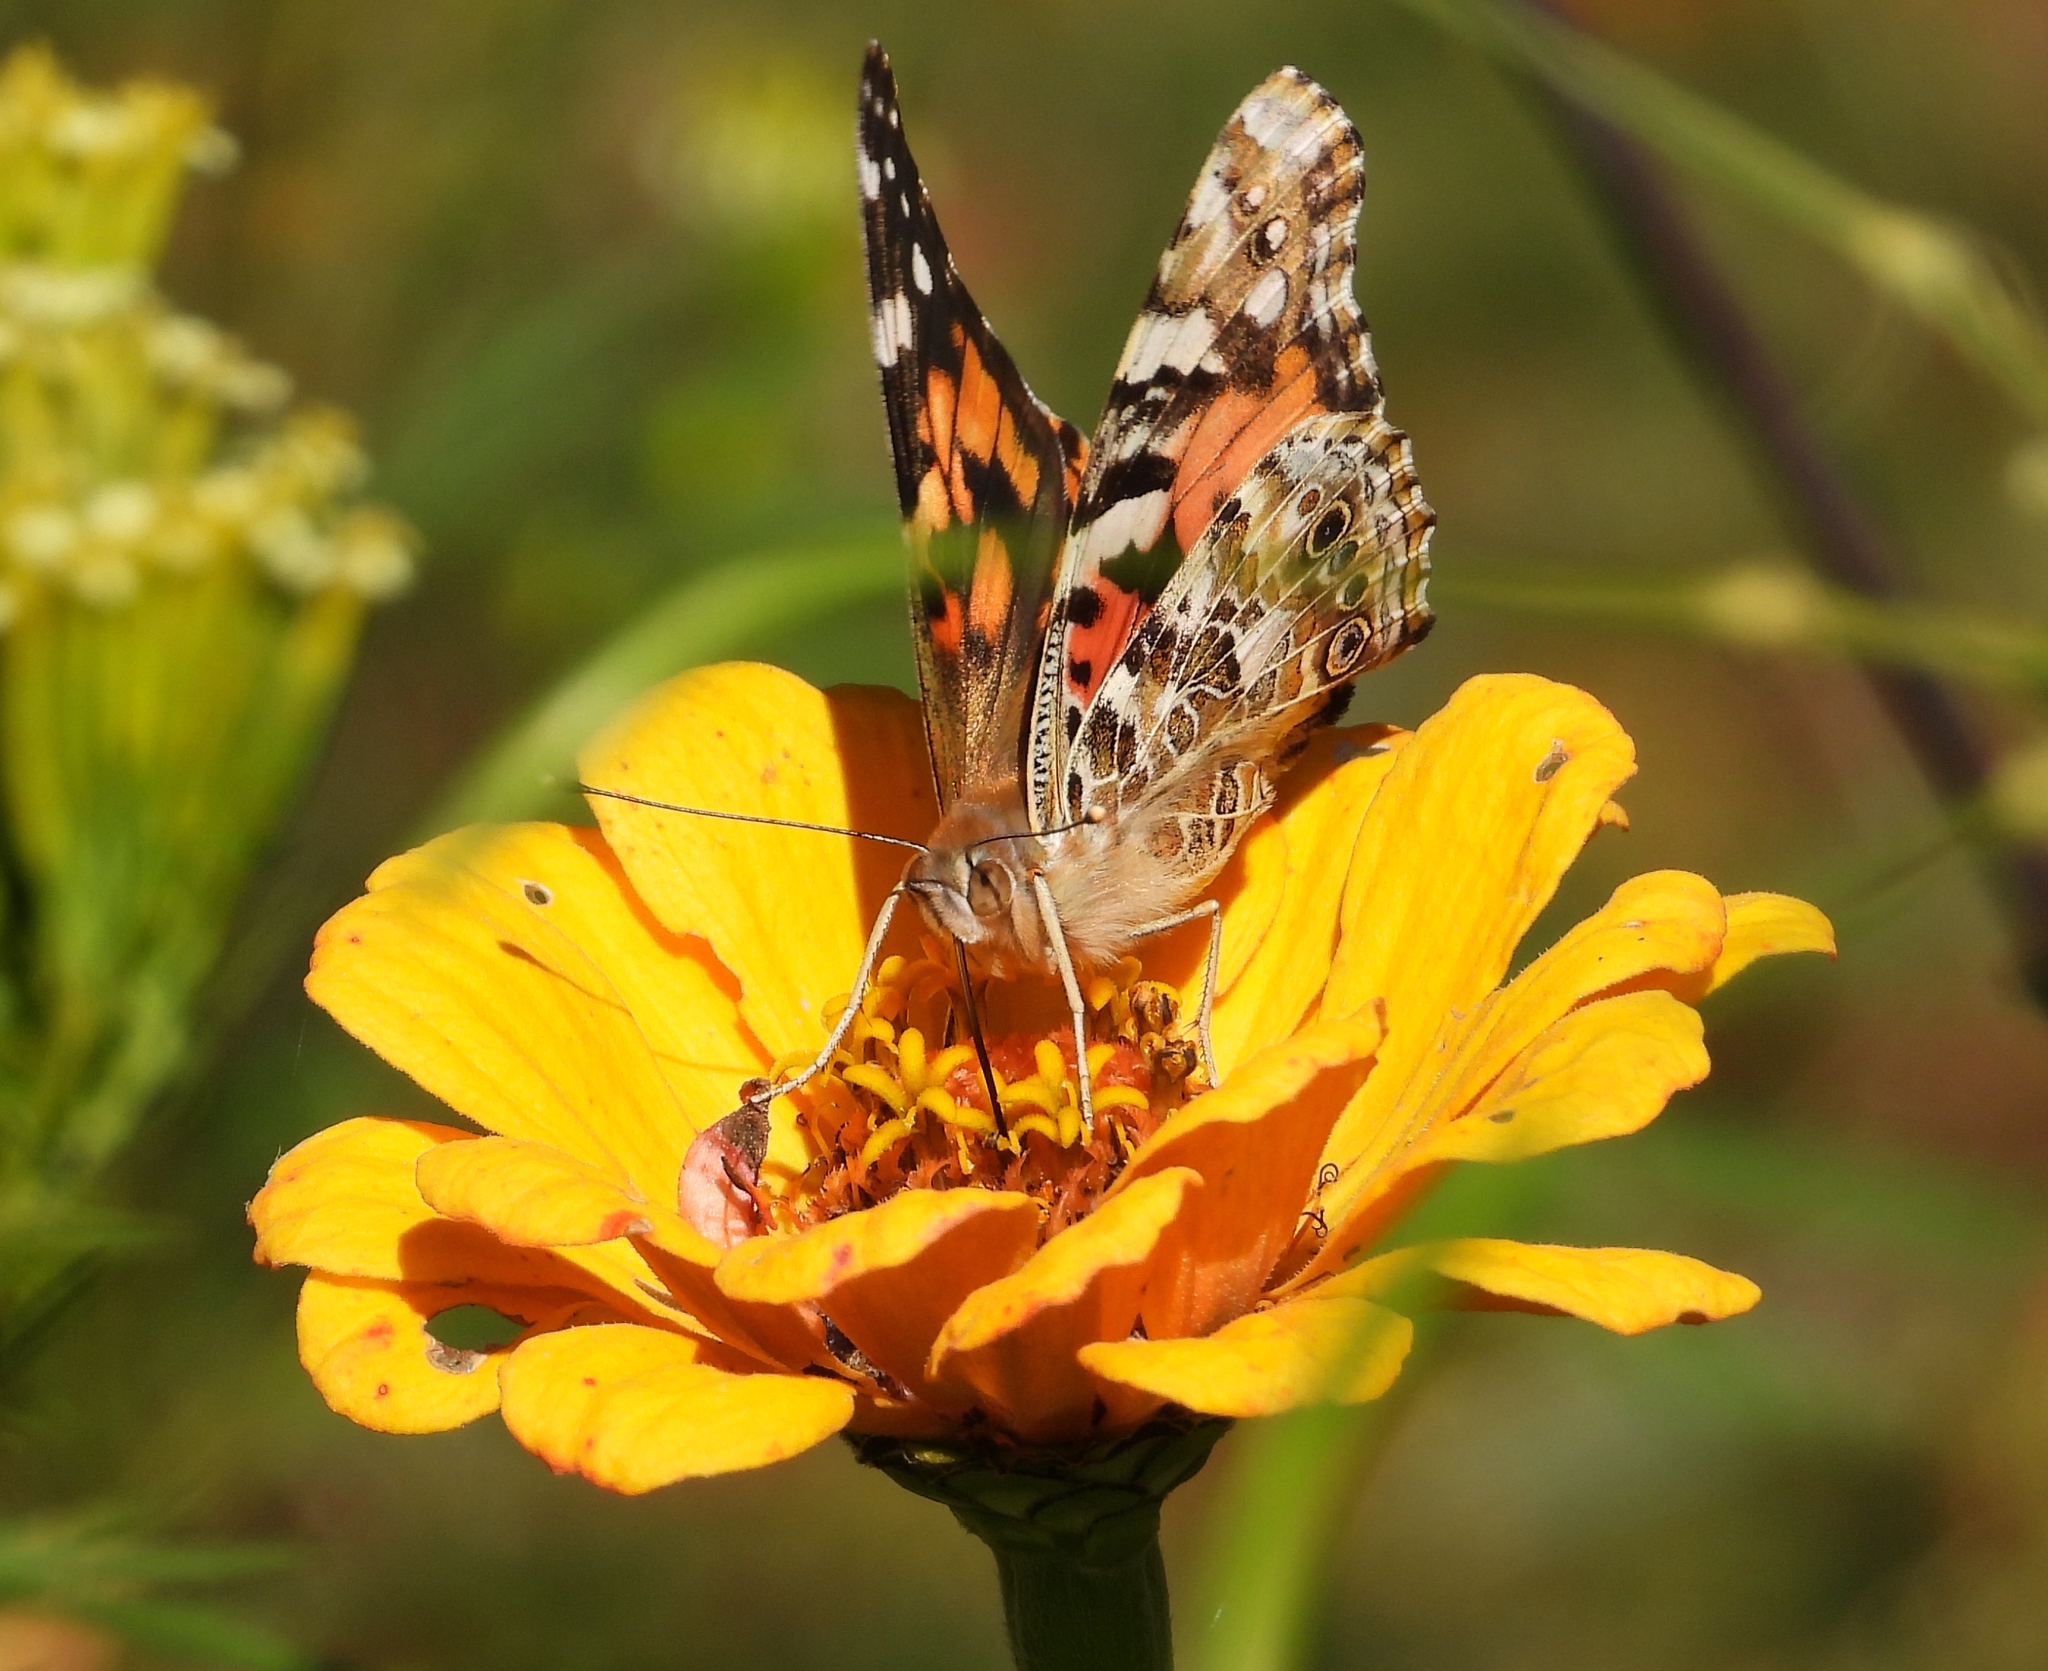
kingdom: Animalia
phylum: Arthropoda
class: Insecta
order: Lepidoptera
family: Nymphalidae
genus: Vanessa
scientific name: Vanessa cardui
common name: Painted lady
